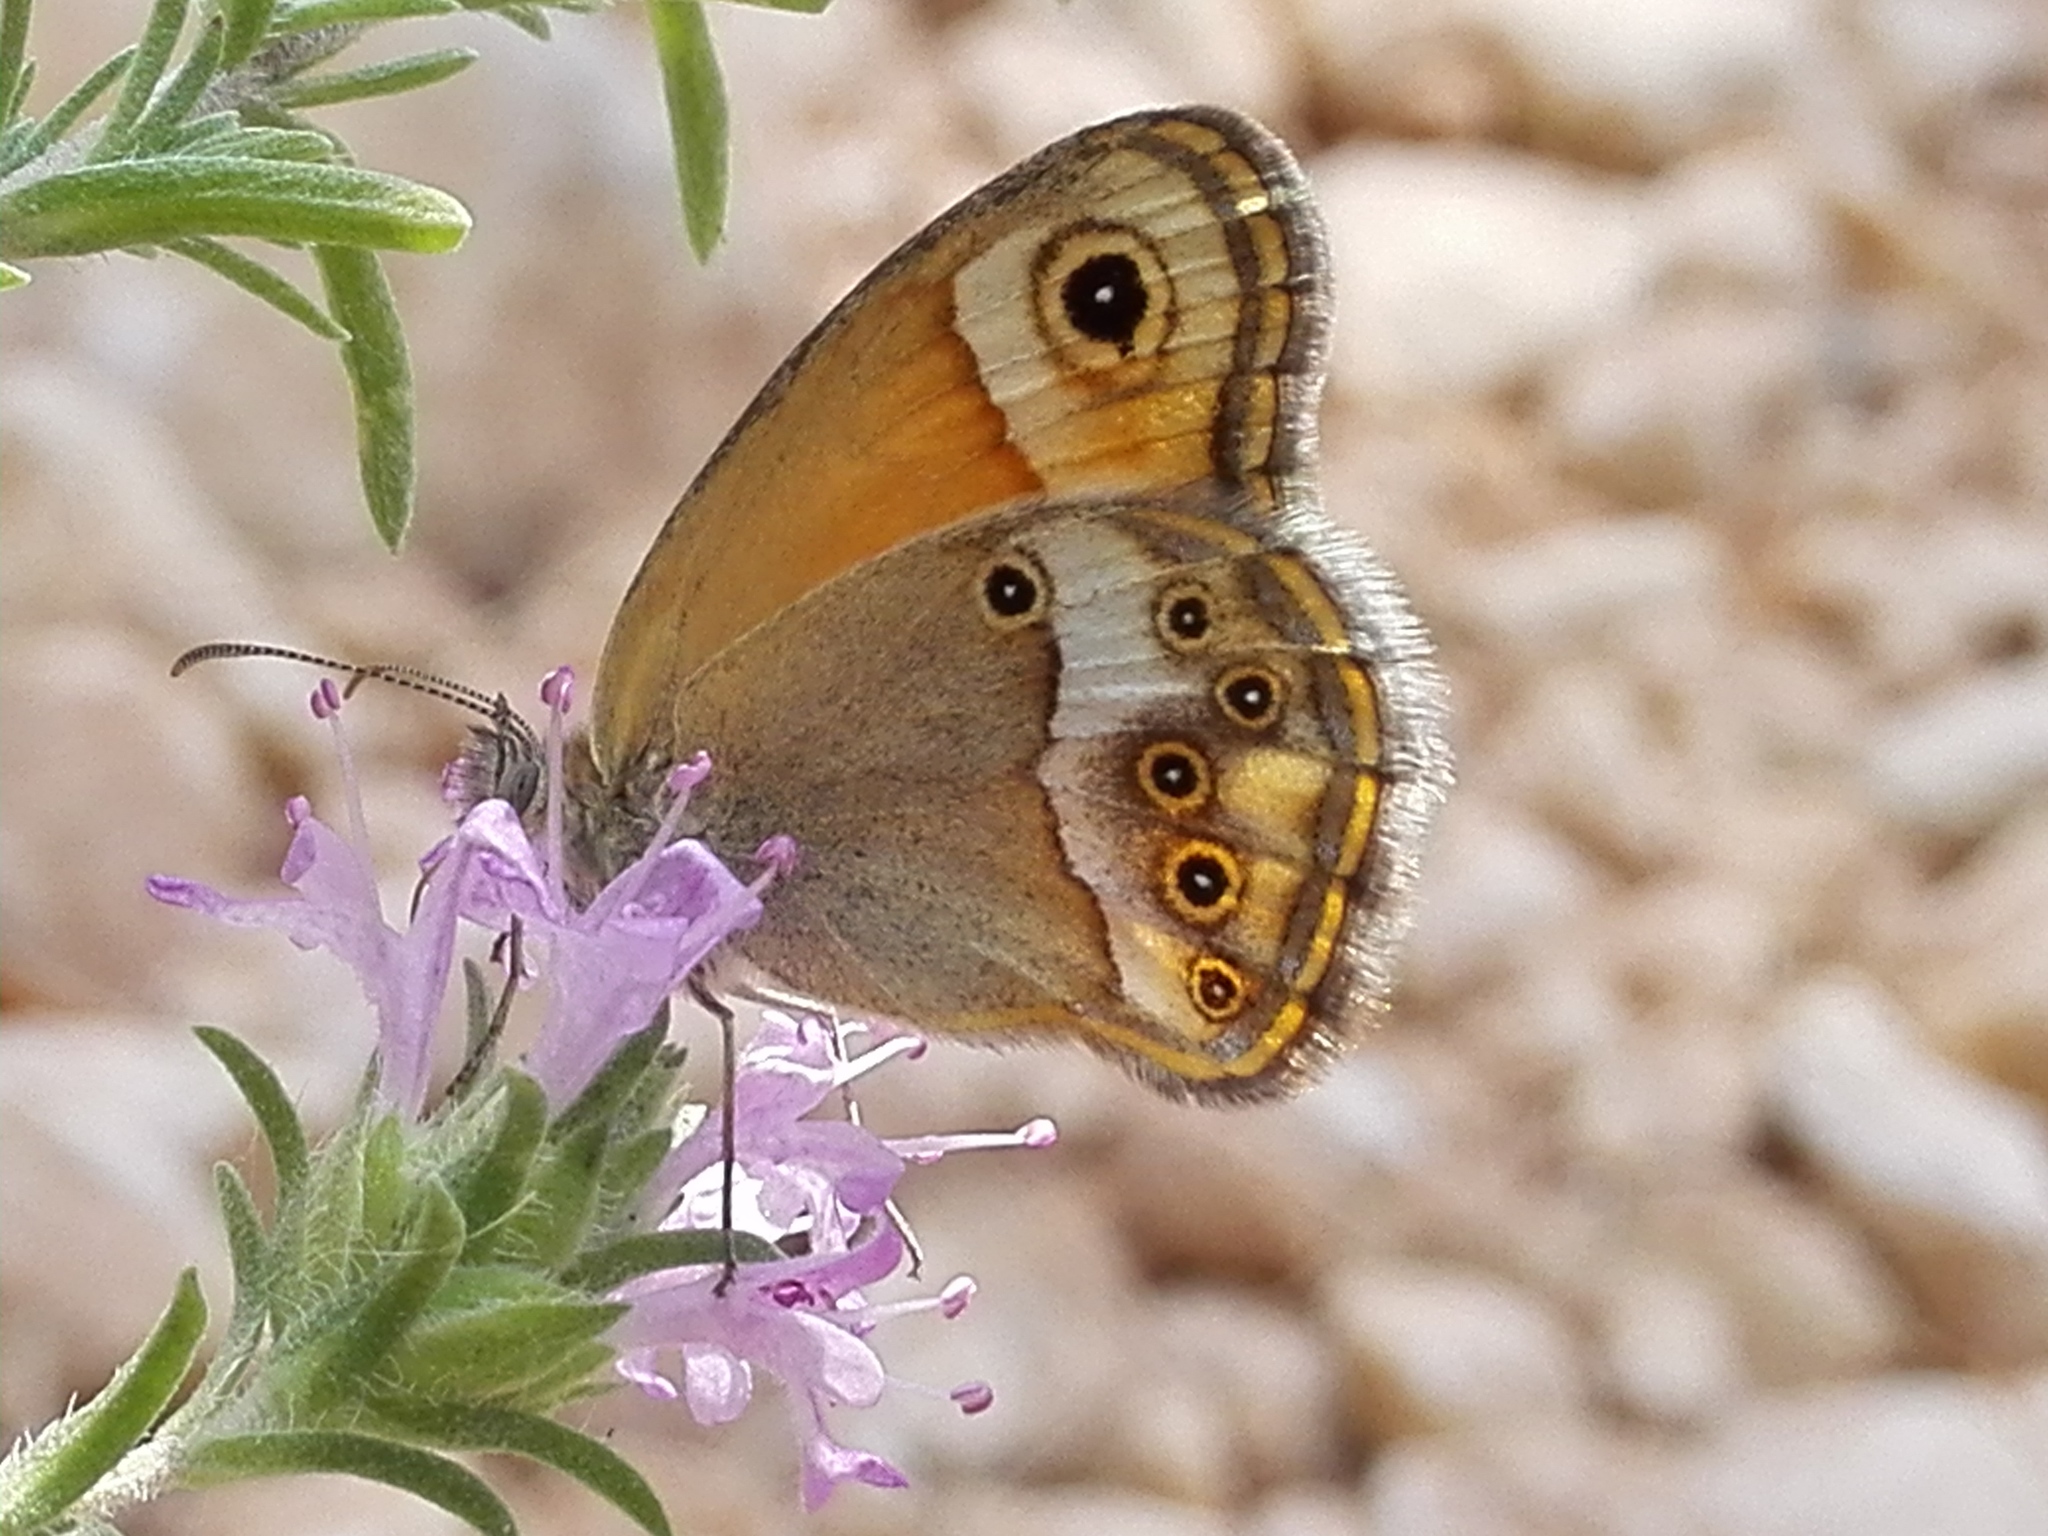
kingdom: Animalia
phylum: Arthropoda
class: Insecta
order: Lepidoptera
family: Nymphalidae
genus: Coenonympha
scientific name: Coenonympha dorus
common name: Dusky heath
